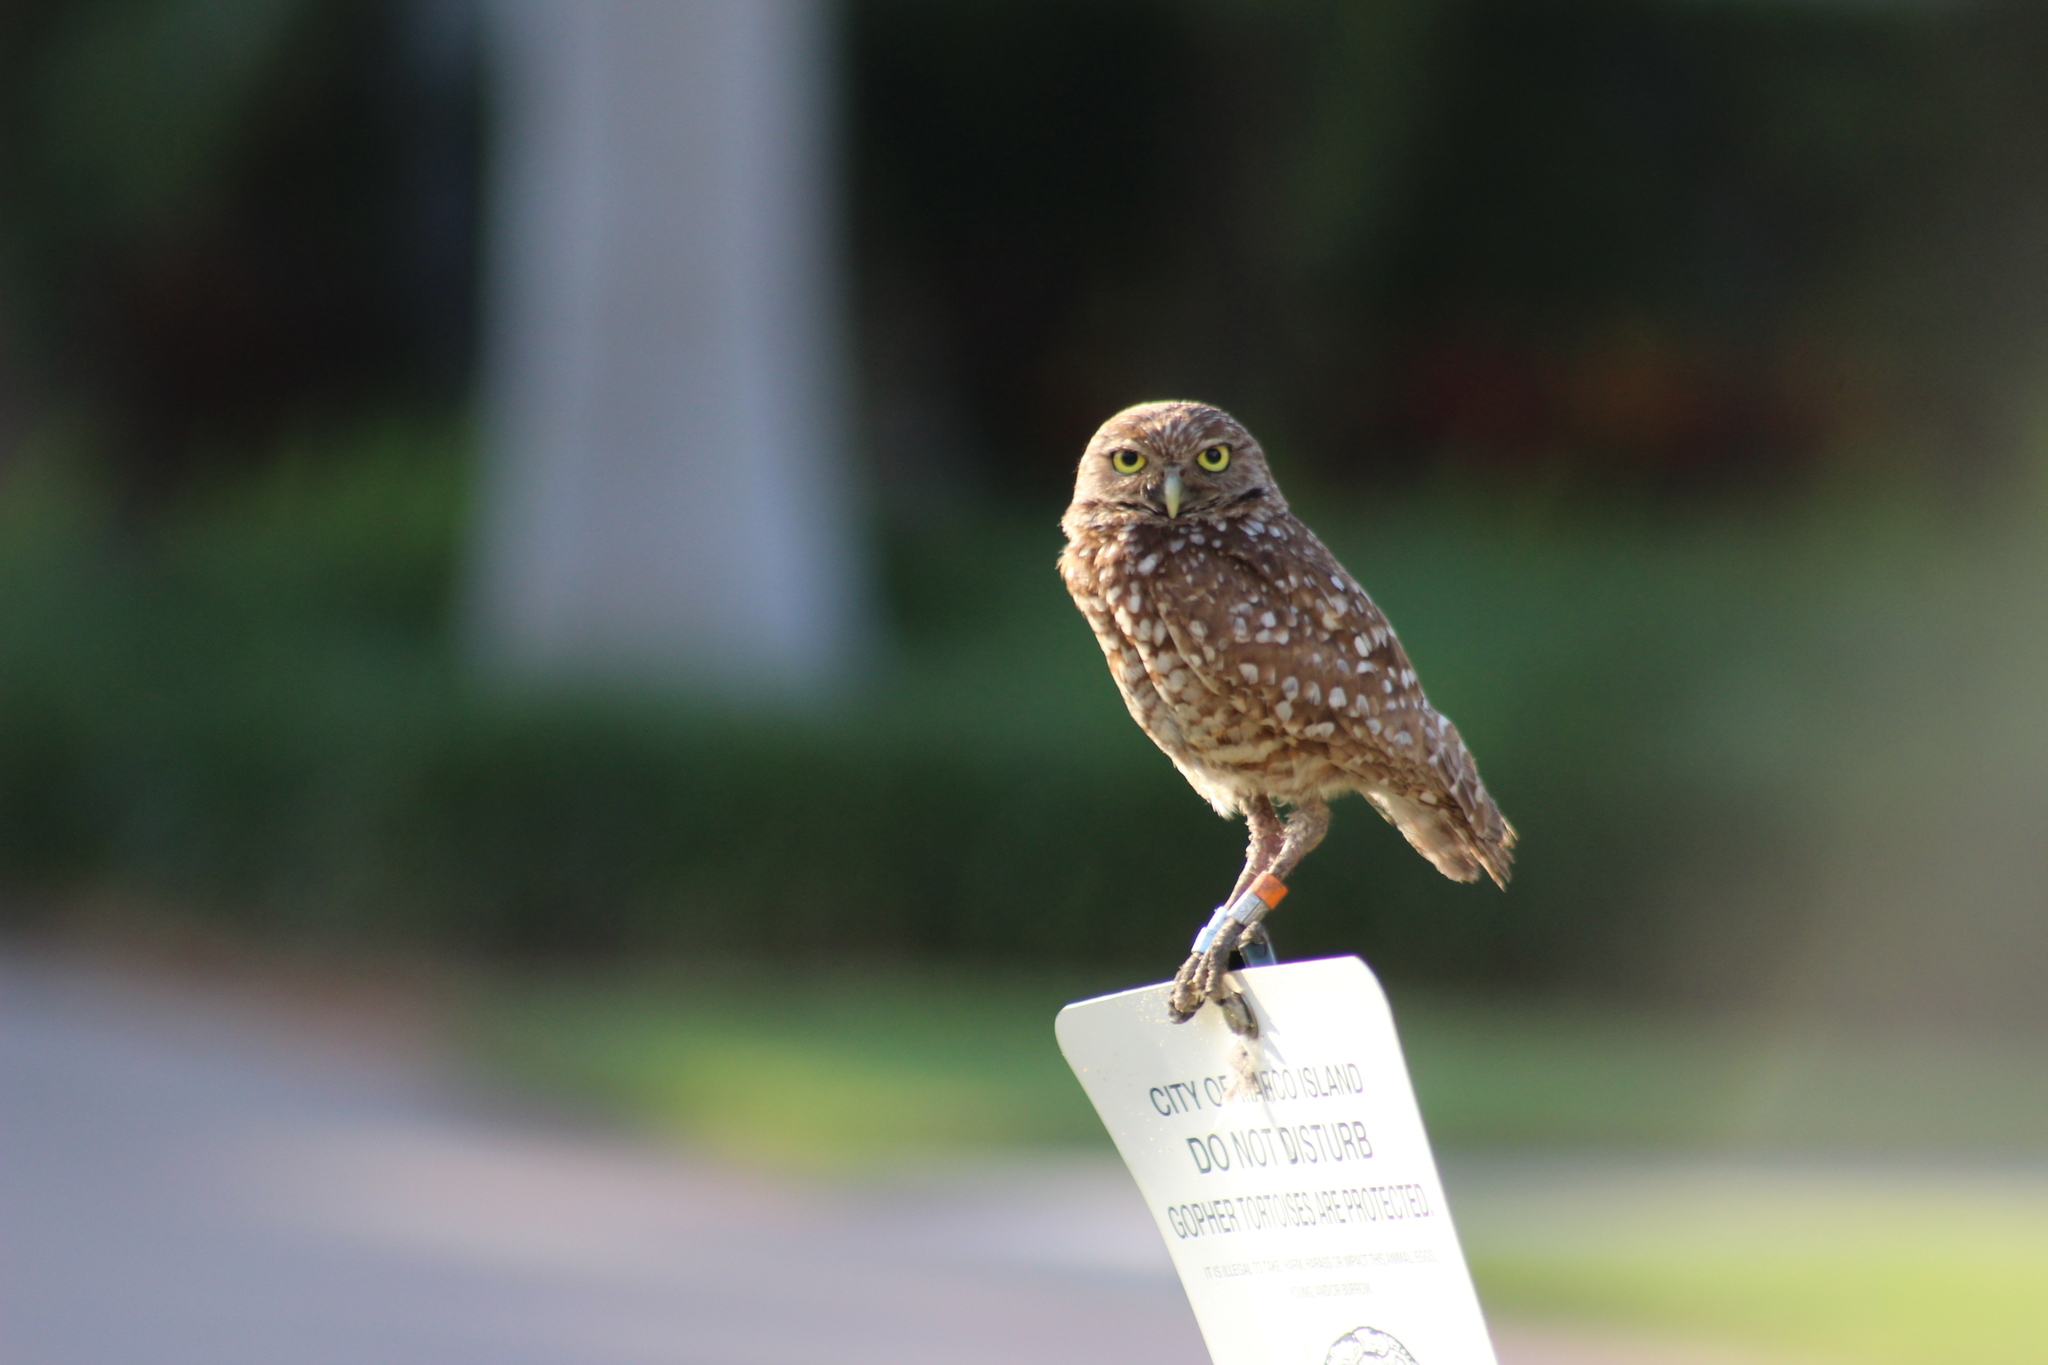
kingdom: Animalia
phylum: Chordata
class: Aves
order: Strigiformes
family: Strigidae
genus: Athene
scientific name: Athene cunicularia
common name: Burrowing owl
